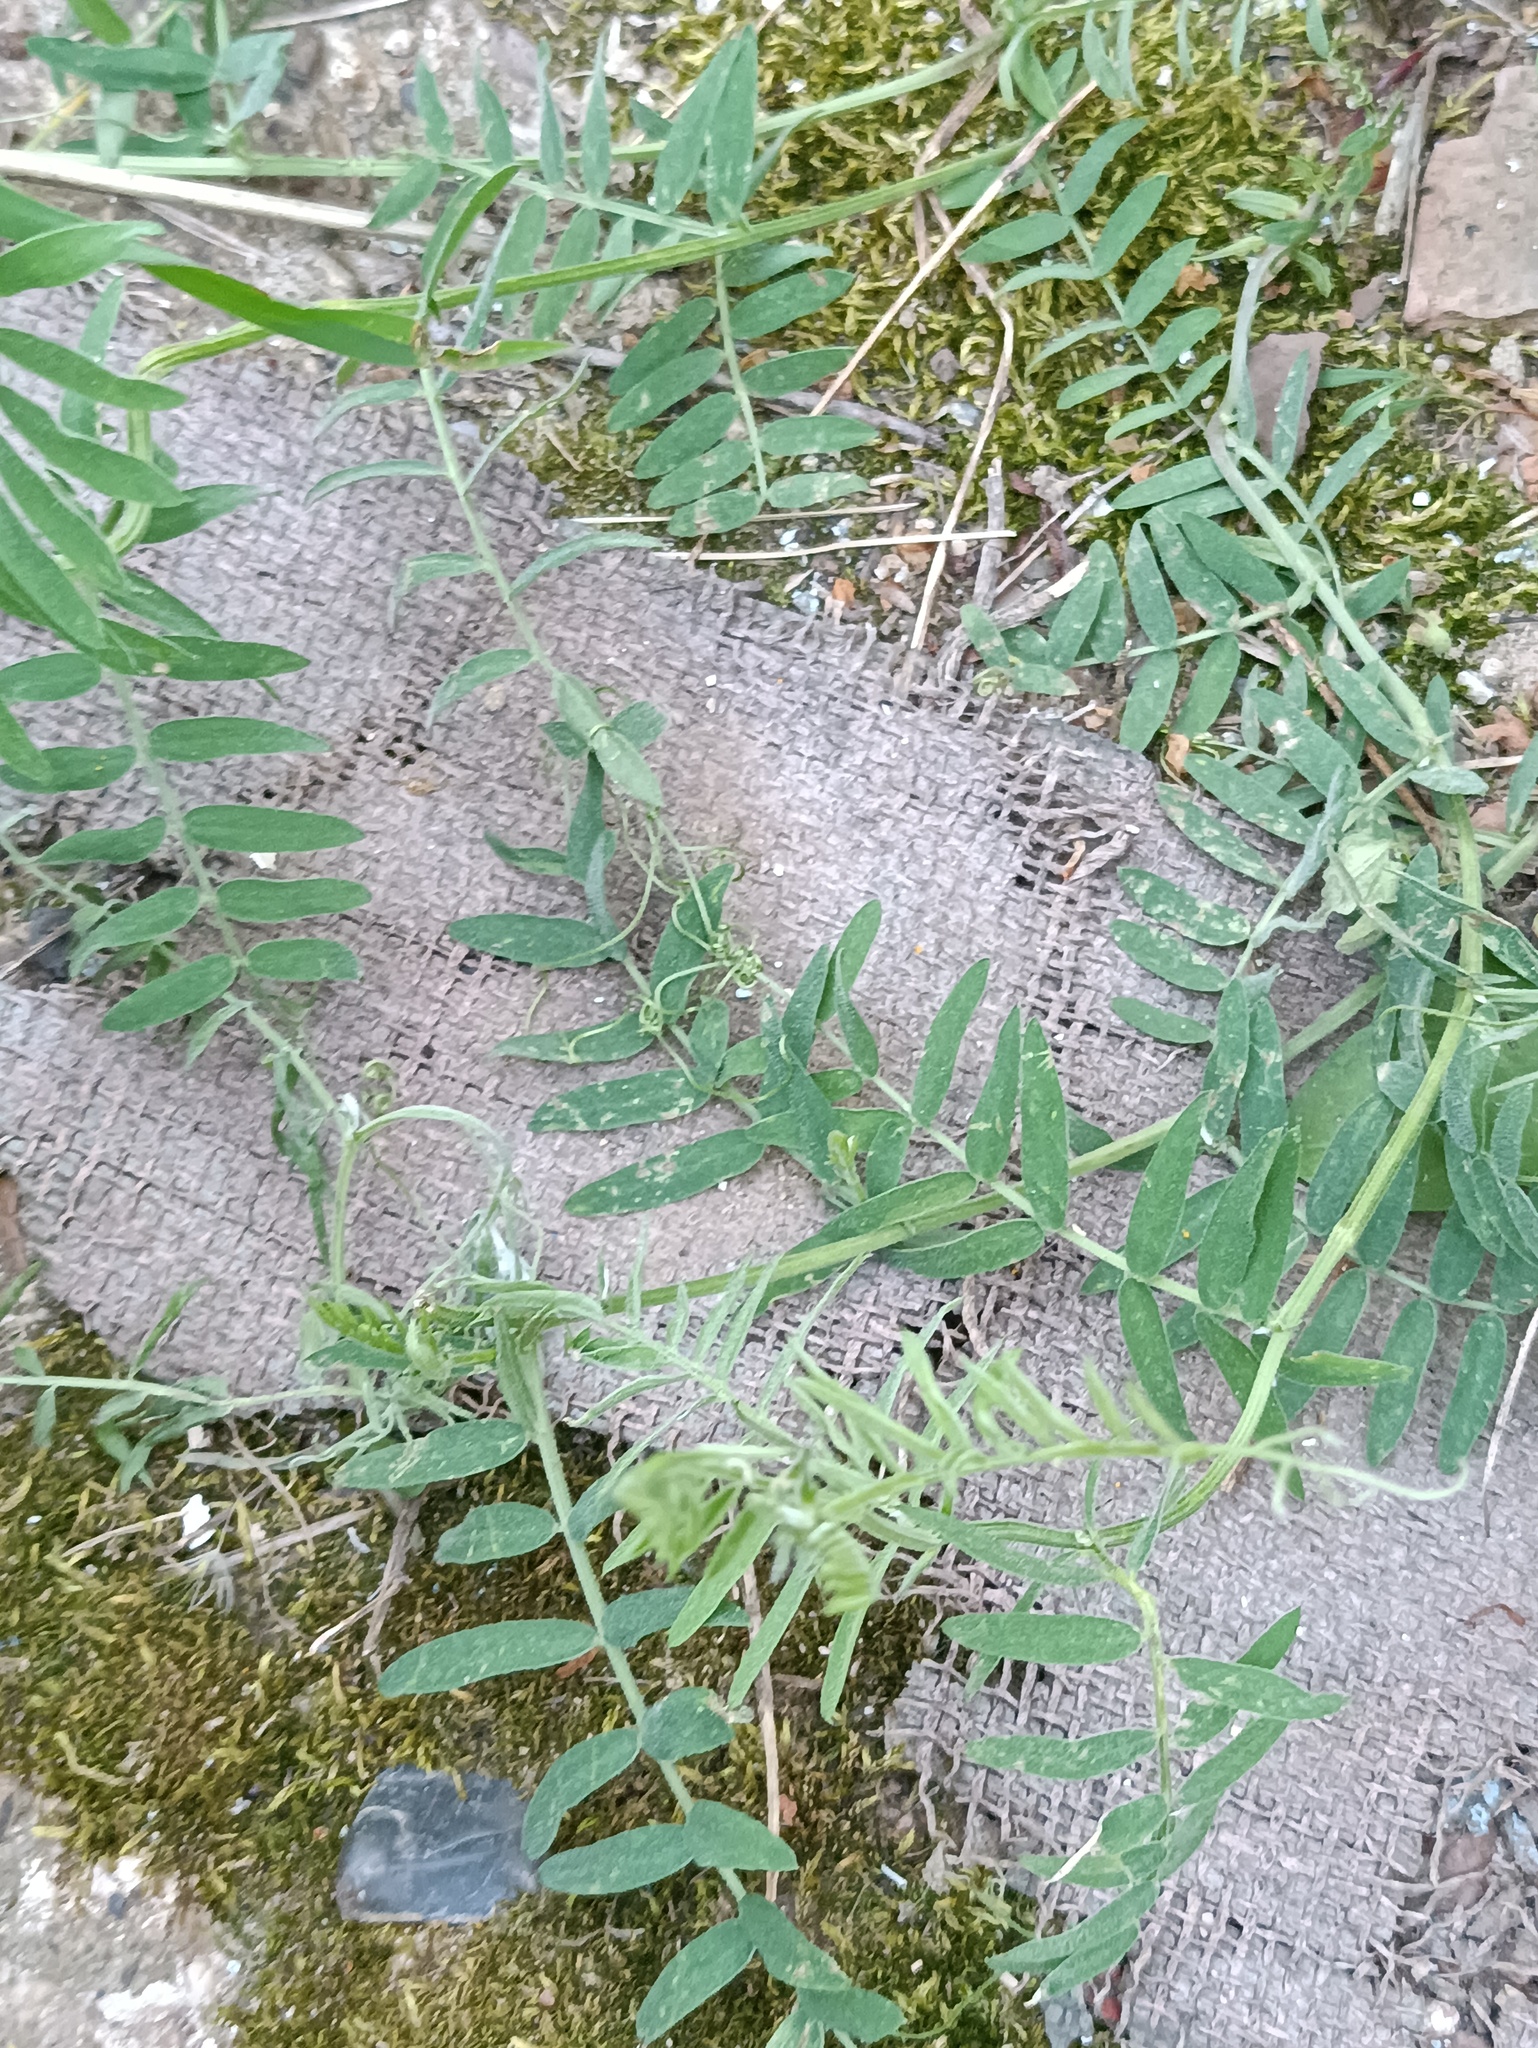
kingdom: Plantae
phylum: Tracheophyta
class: Magnoliopsida
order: Fabales
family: Fabaceae
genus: Vicia
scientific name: Vicia cracca
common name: Bird vetch
